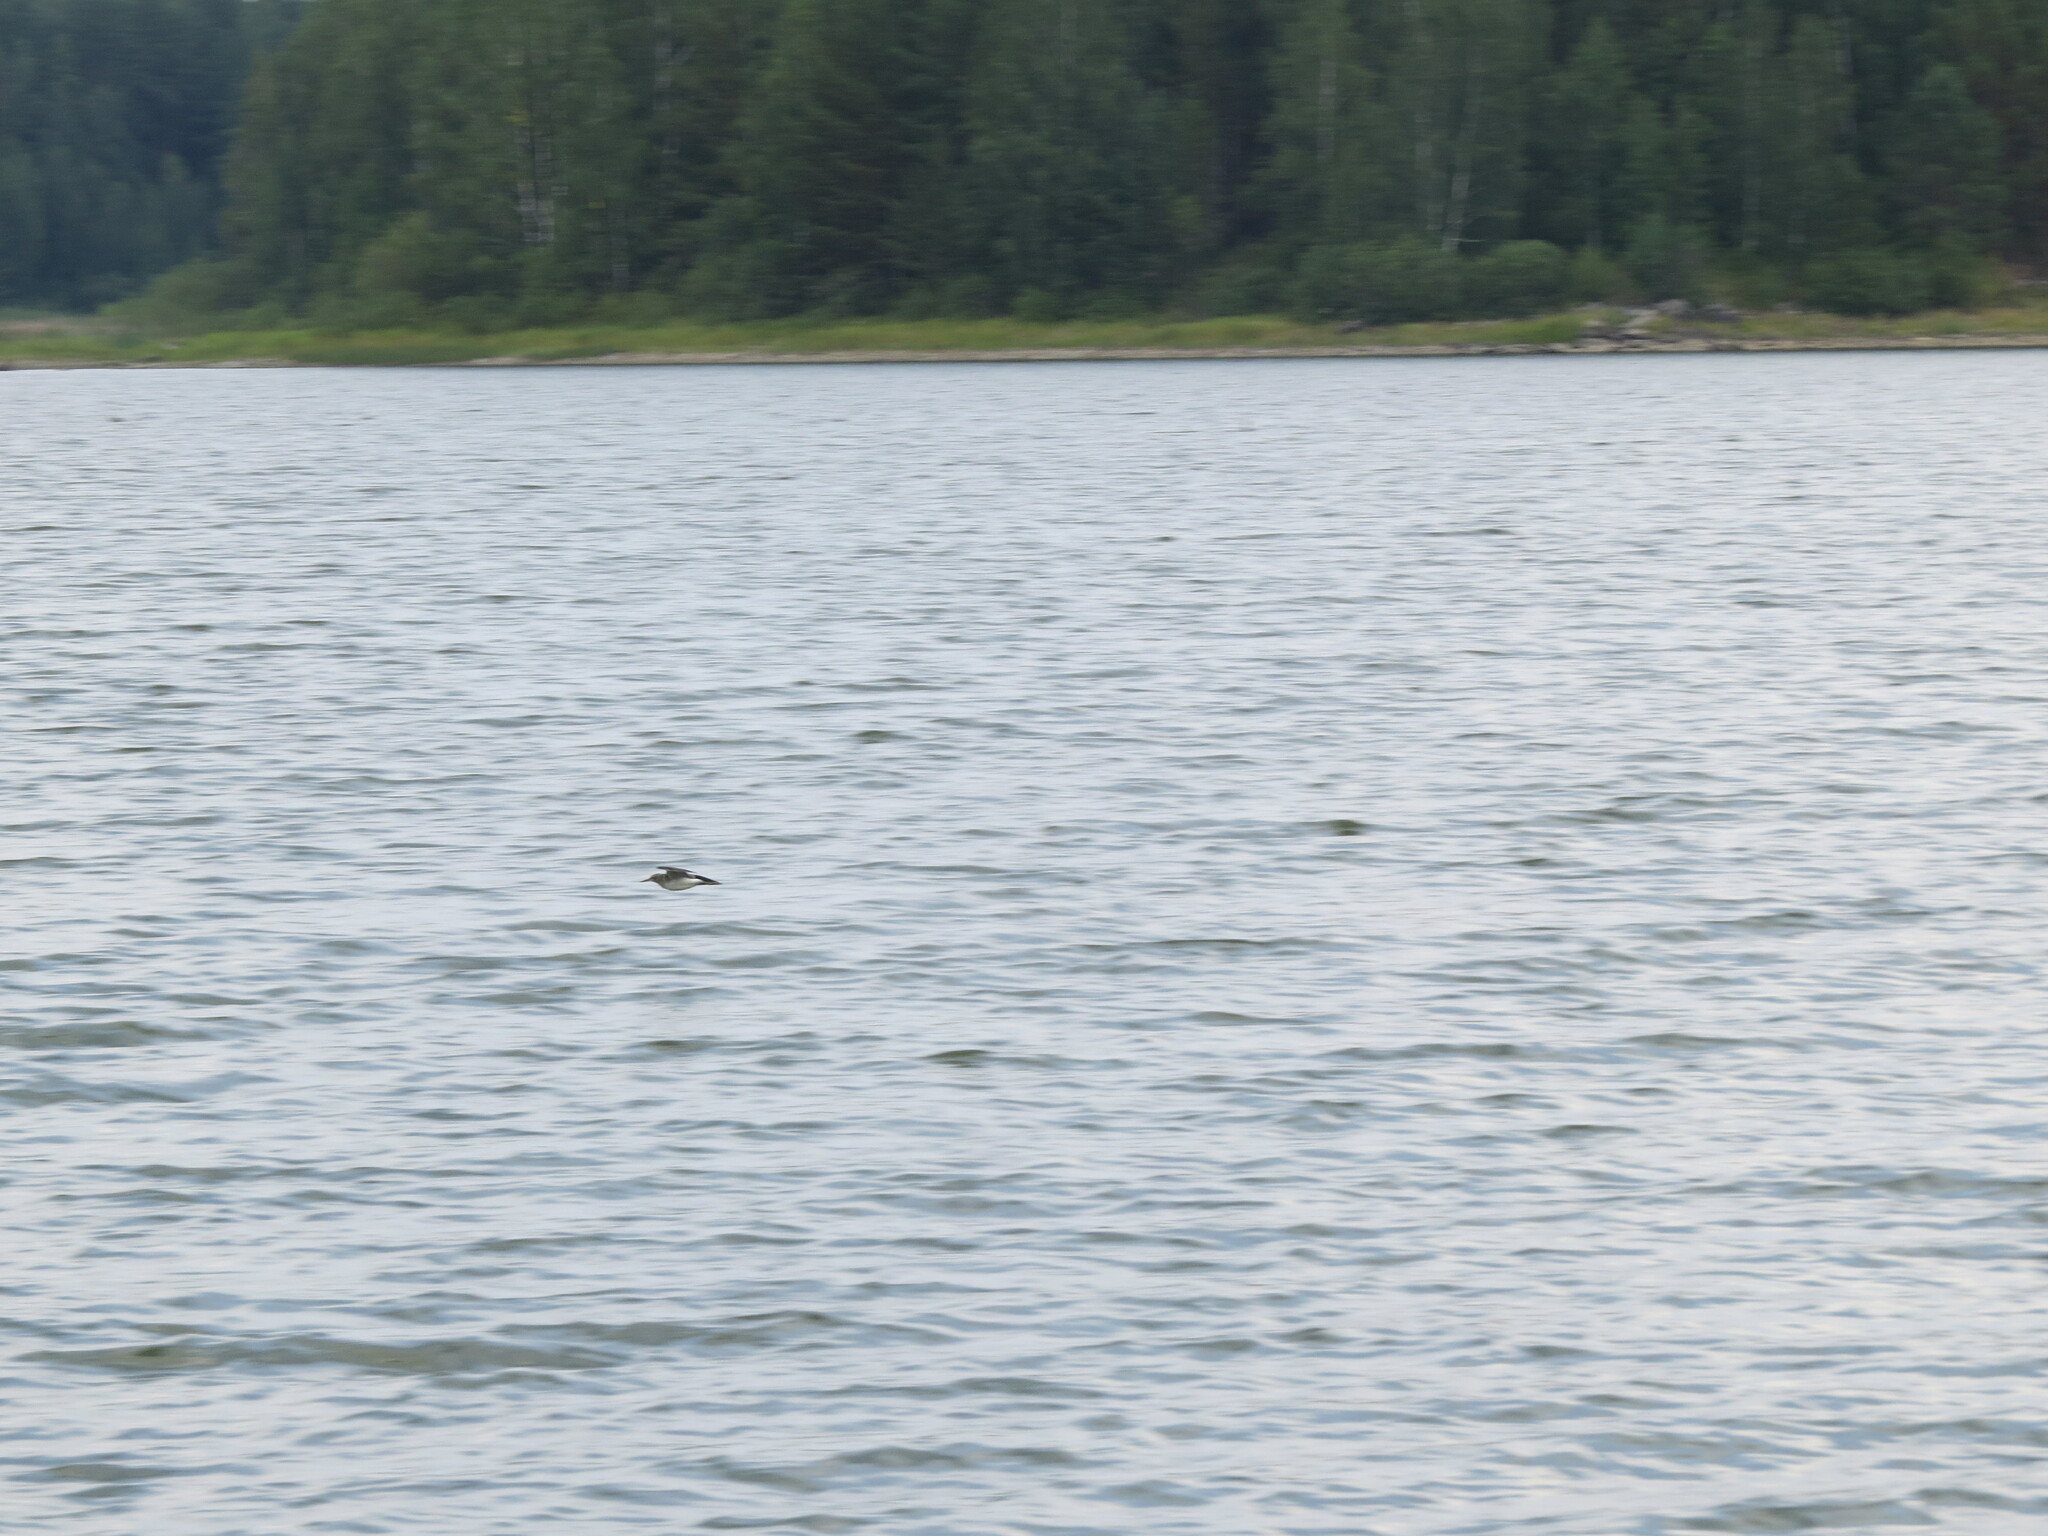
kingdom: Animalia
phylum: Chordata
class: Aves
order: Charadriiformes
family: Scolopacidae
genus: Tringa
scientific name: Tringa ochropus
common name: Green sandpiper
